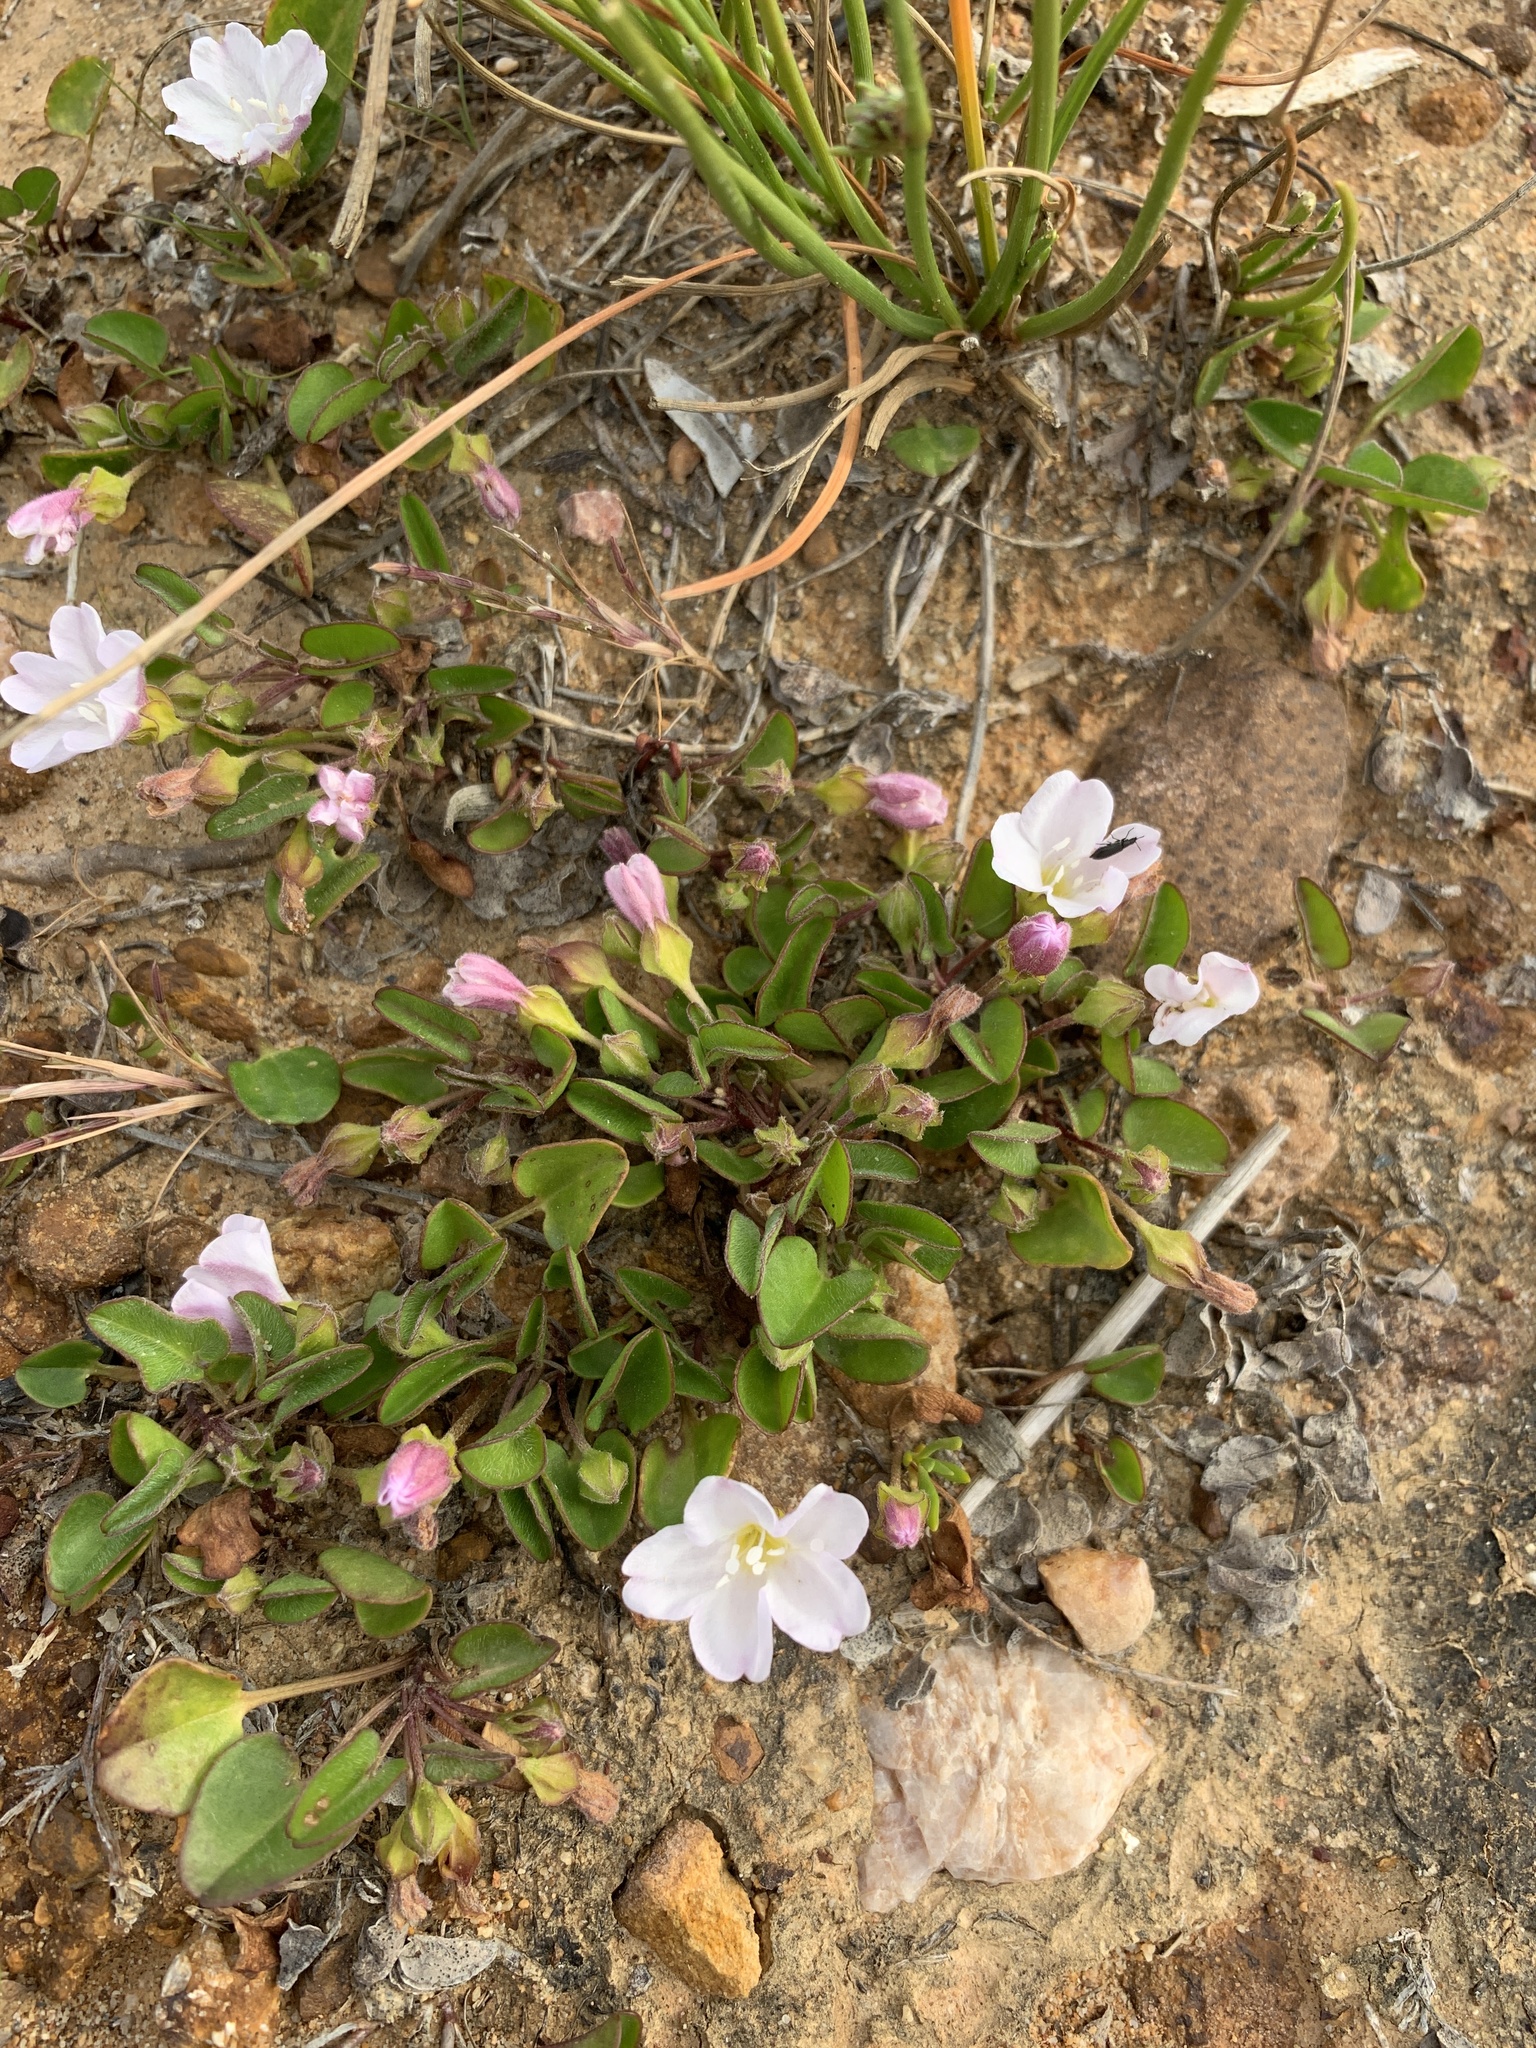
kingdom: Plantae
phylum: Tracheophyta
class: Magnoliopsida
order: Solanales
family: Convolvulaceae
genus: Falkia
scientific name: Falkia repens
